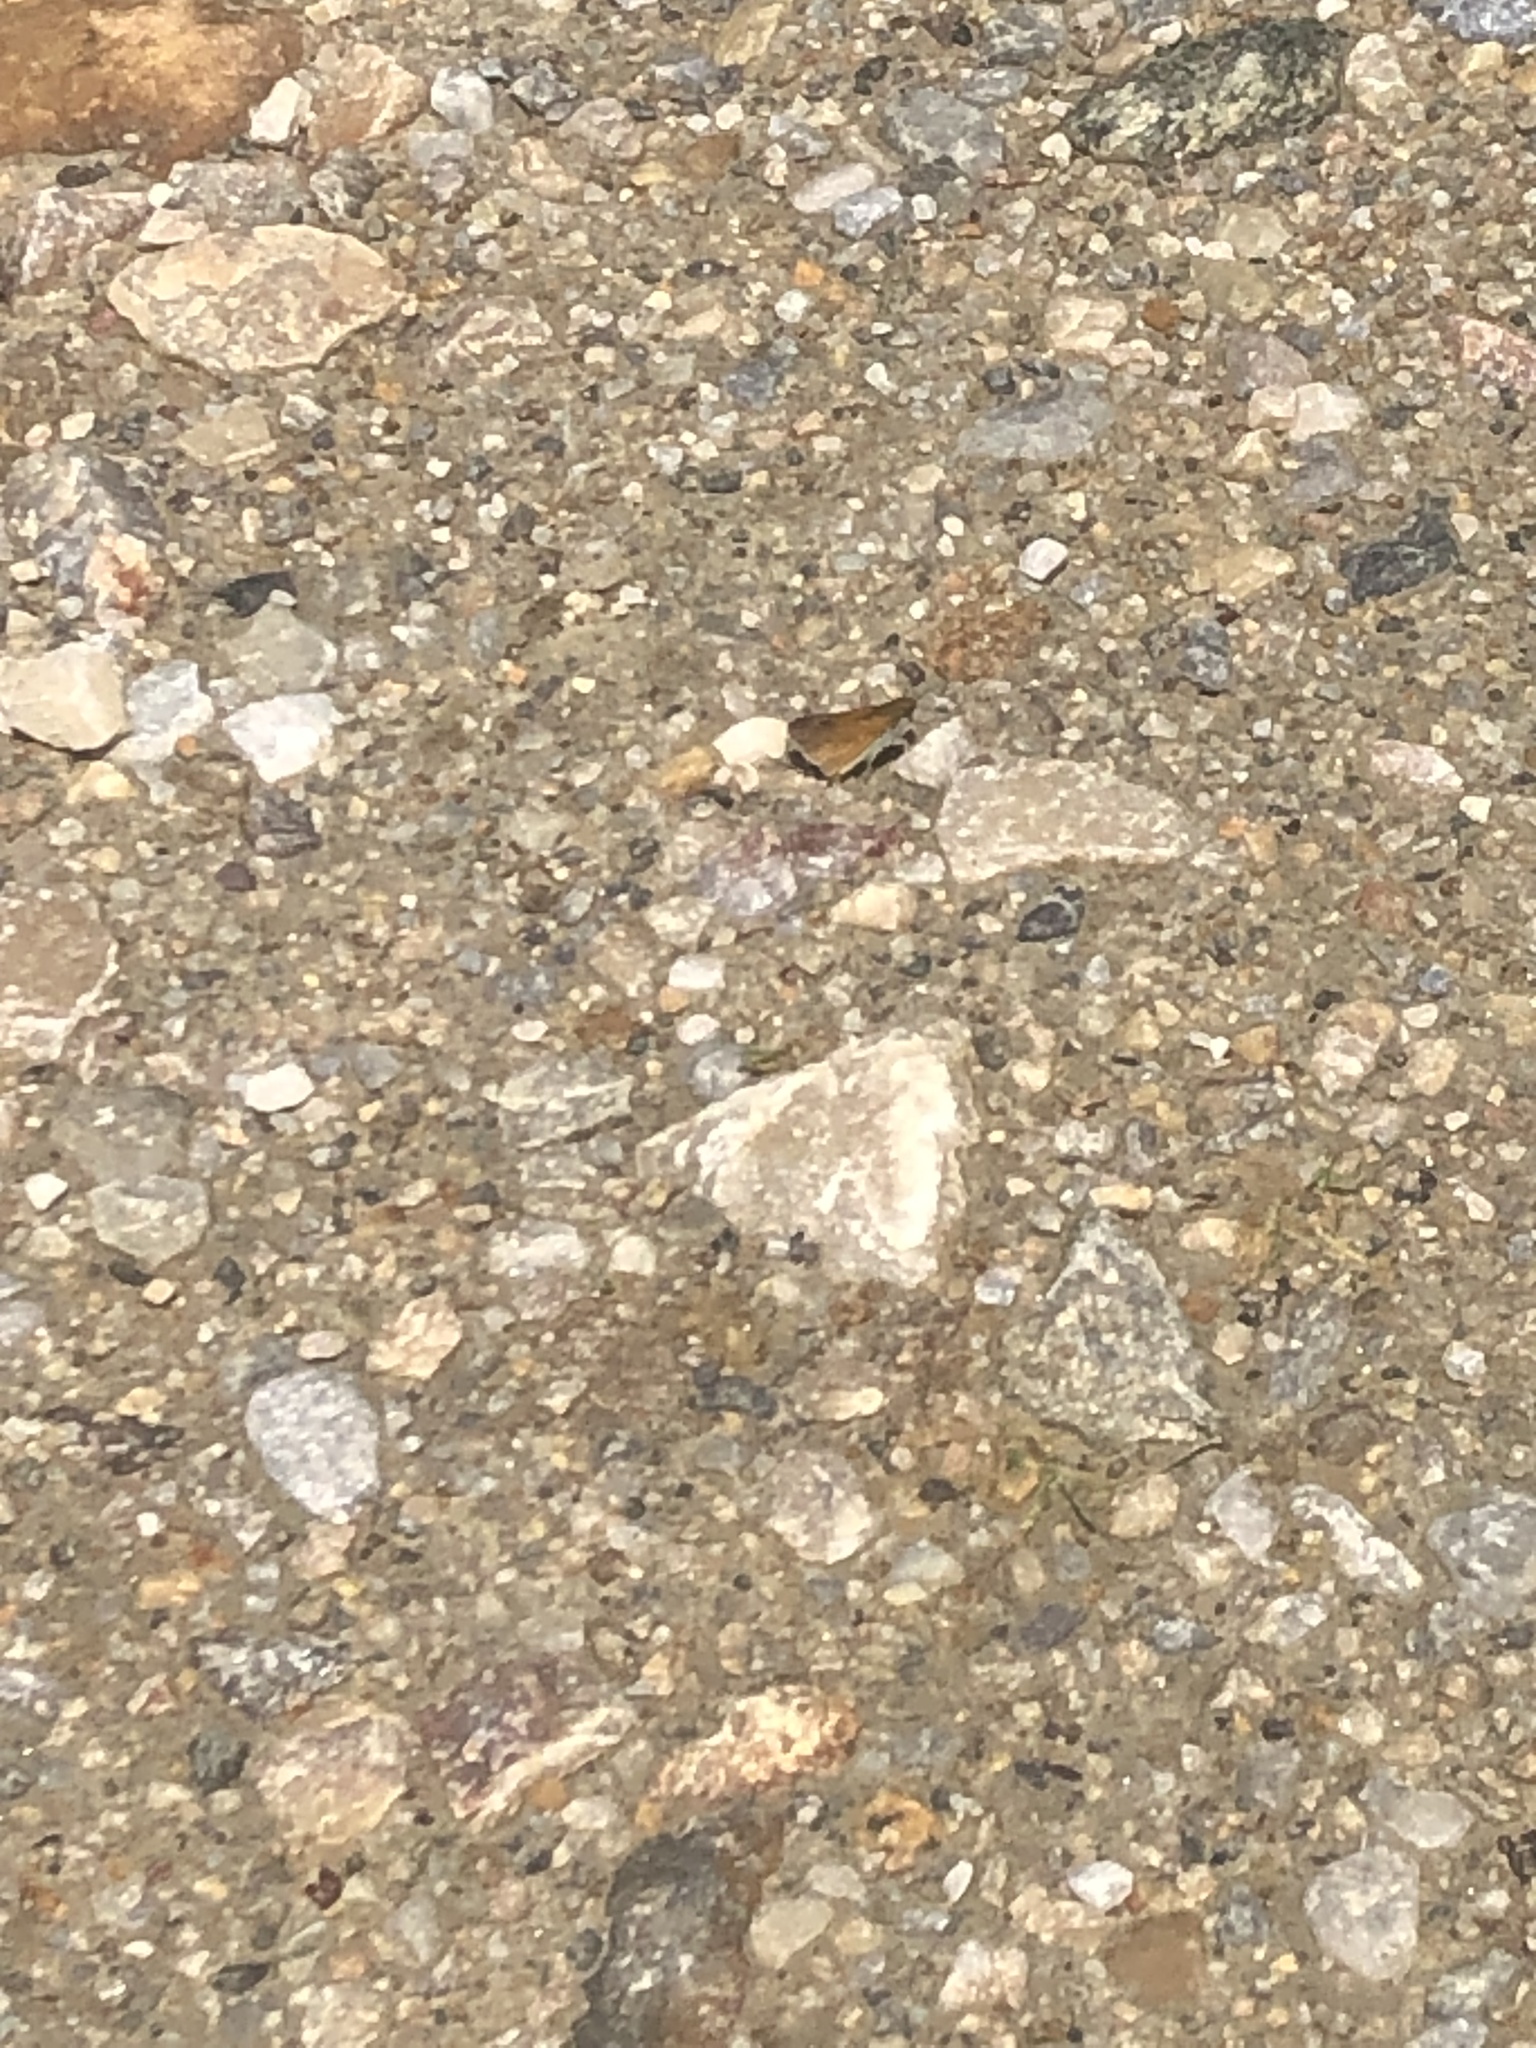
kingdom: Animalia
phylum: Arthropoda
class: Insecta
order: Lepidoptera
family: Hesperiidae
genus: Euphyes
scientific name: Euphyes bimacula
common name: Two-spotted skipper
